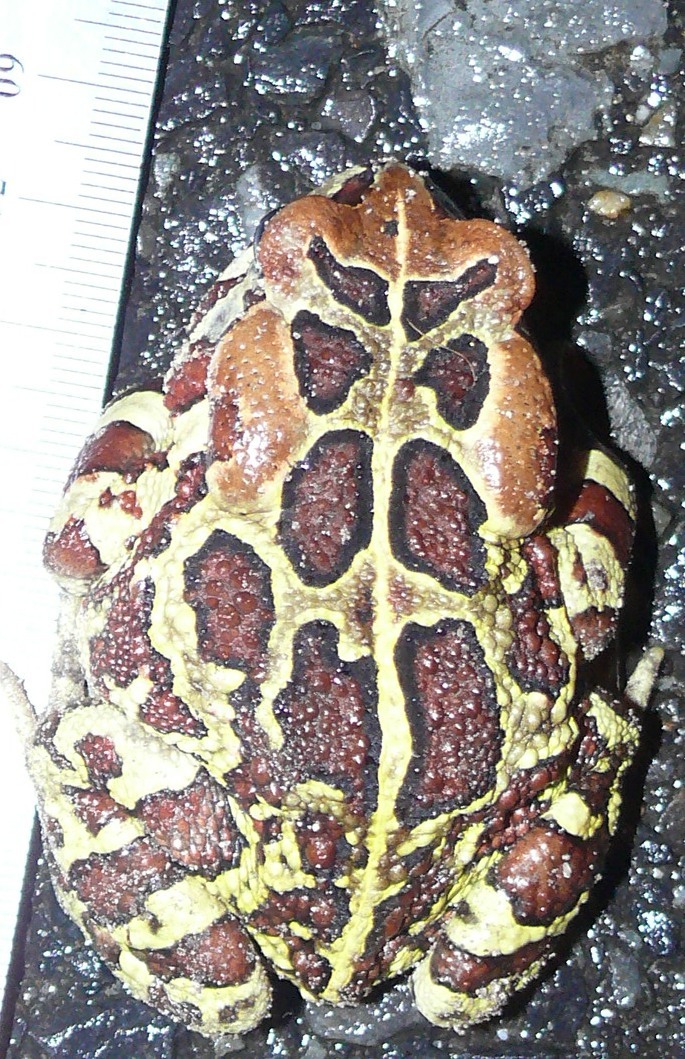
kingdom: Animalia
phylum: Chordata
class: Amphibia
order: Anura
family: Bufonidae
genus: Sclerophrys
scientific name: Sclerophrys pantherina
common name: Panther toad
